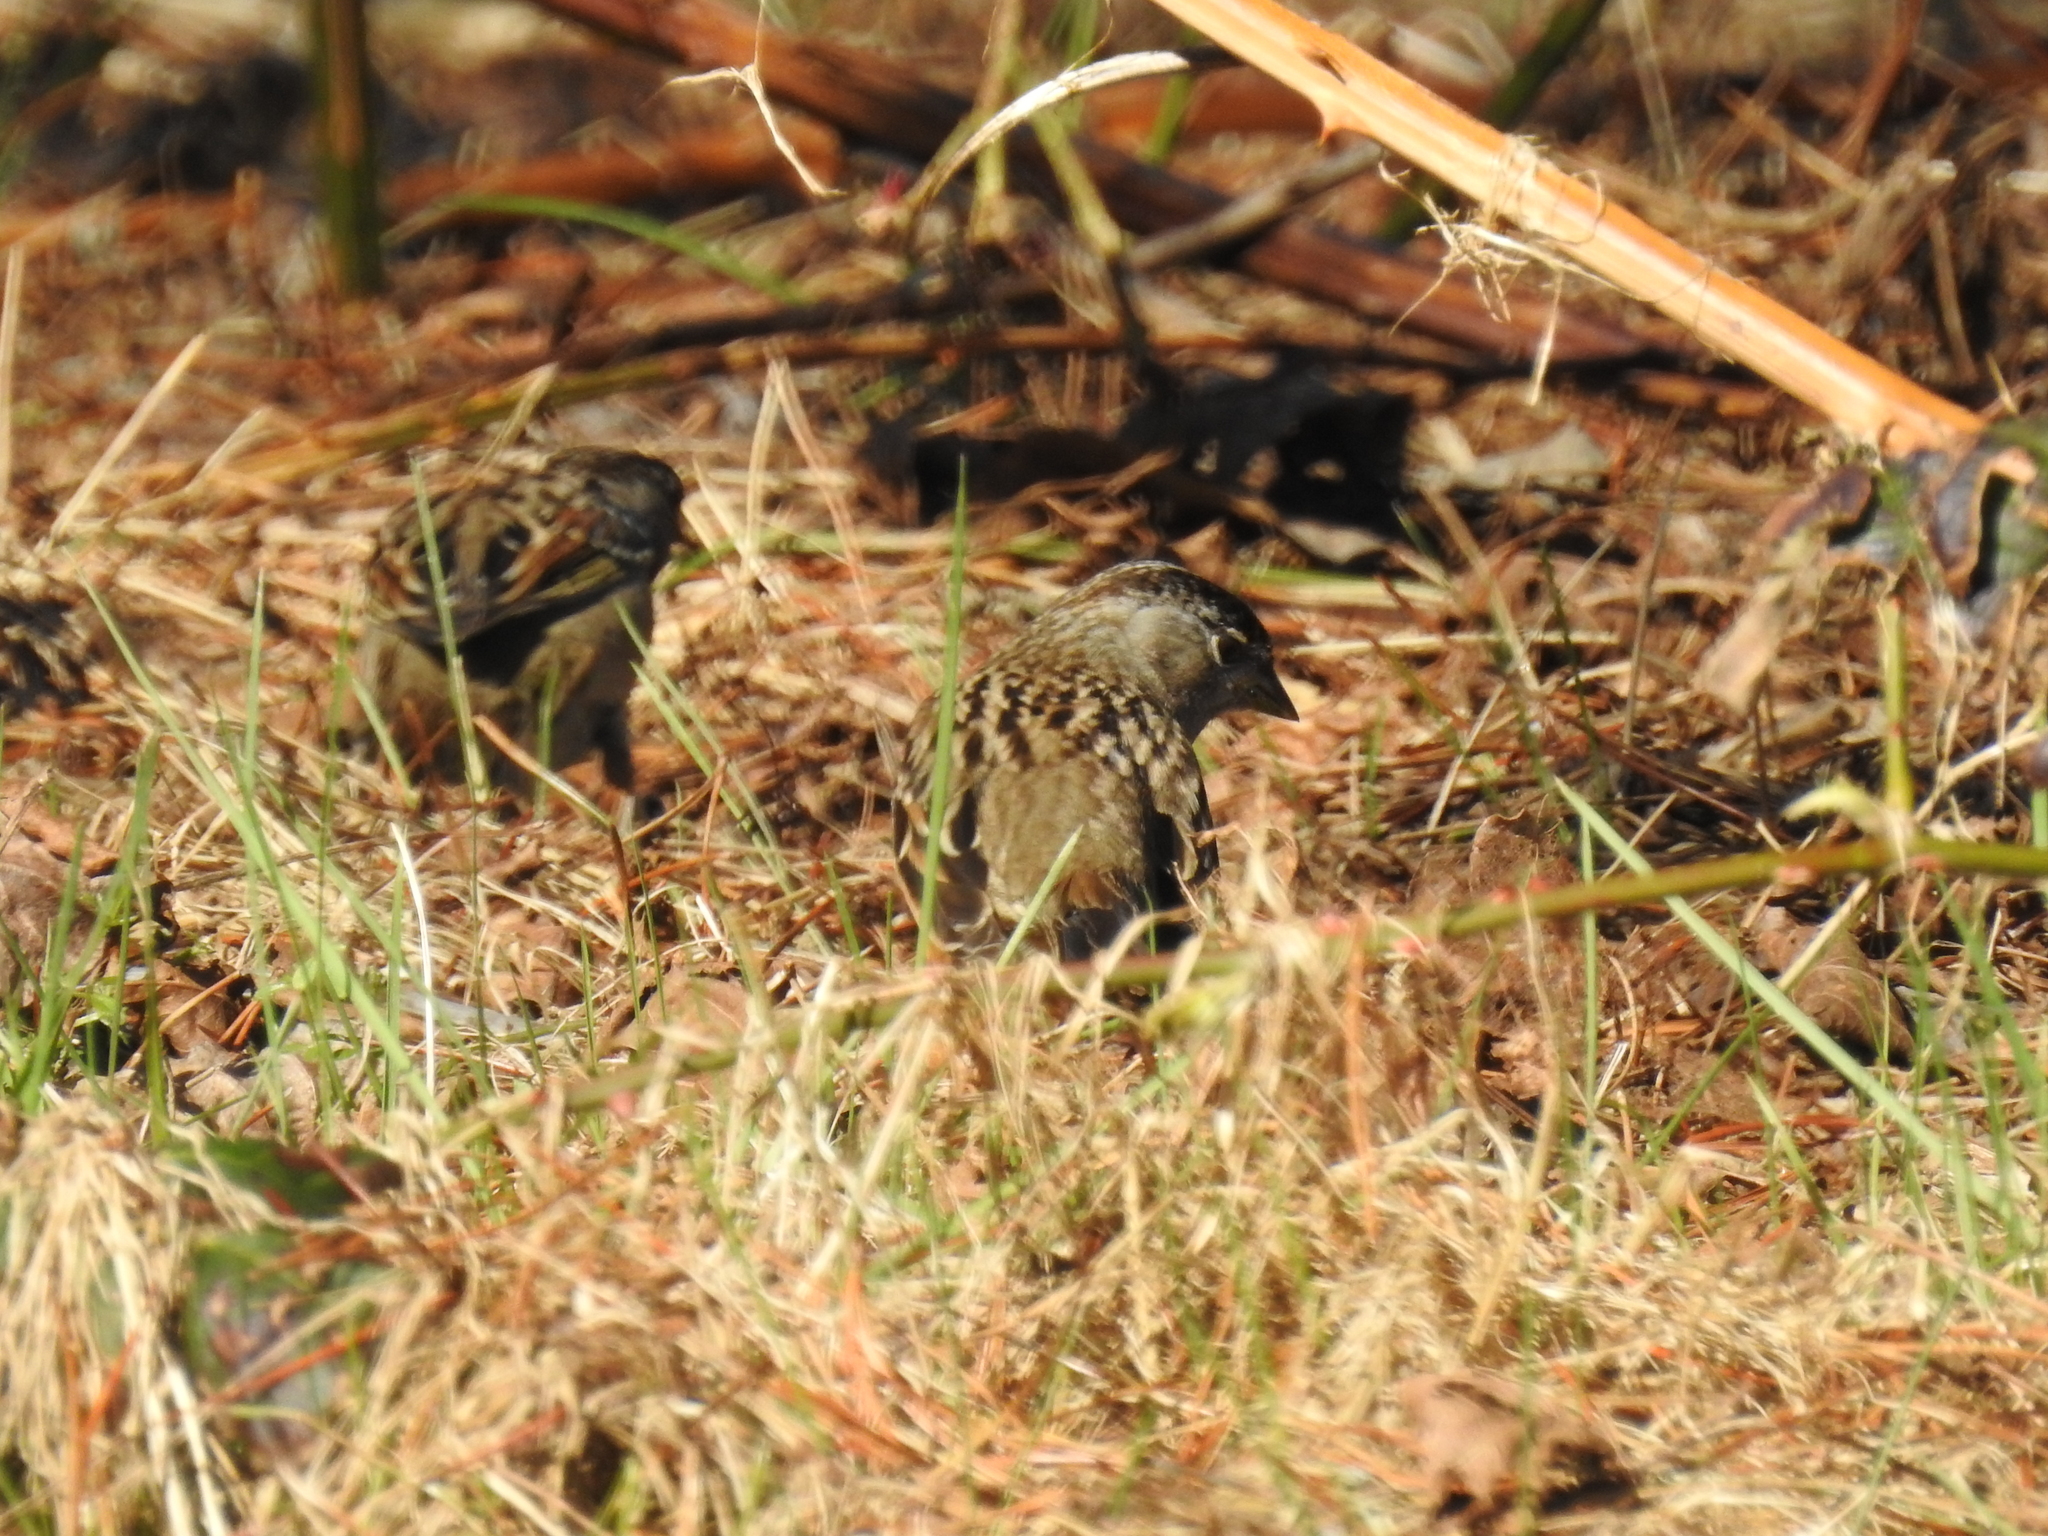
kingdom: Animalia
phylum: Chordata
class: Aves
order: Passeriformes
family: Passerellidae
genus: Zonotrichia
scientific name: Zonotrichia atricapilla
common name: Golden-crowned sparrow
